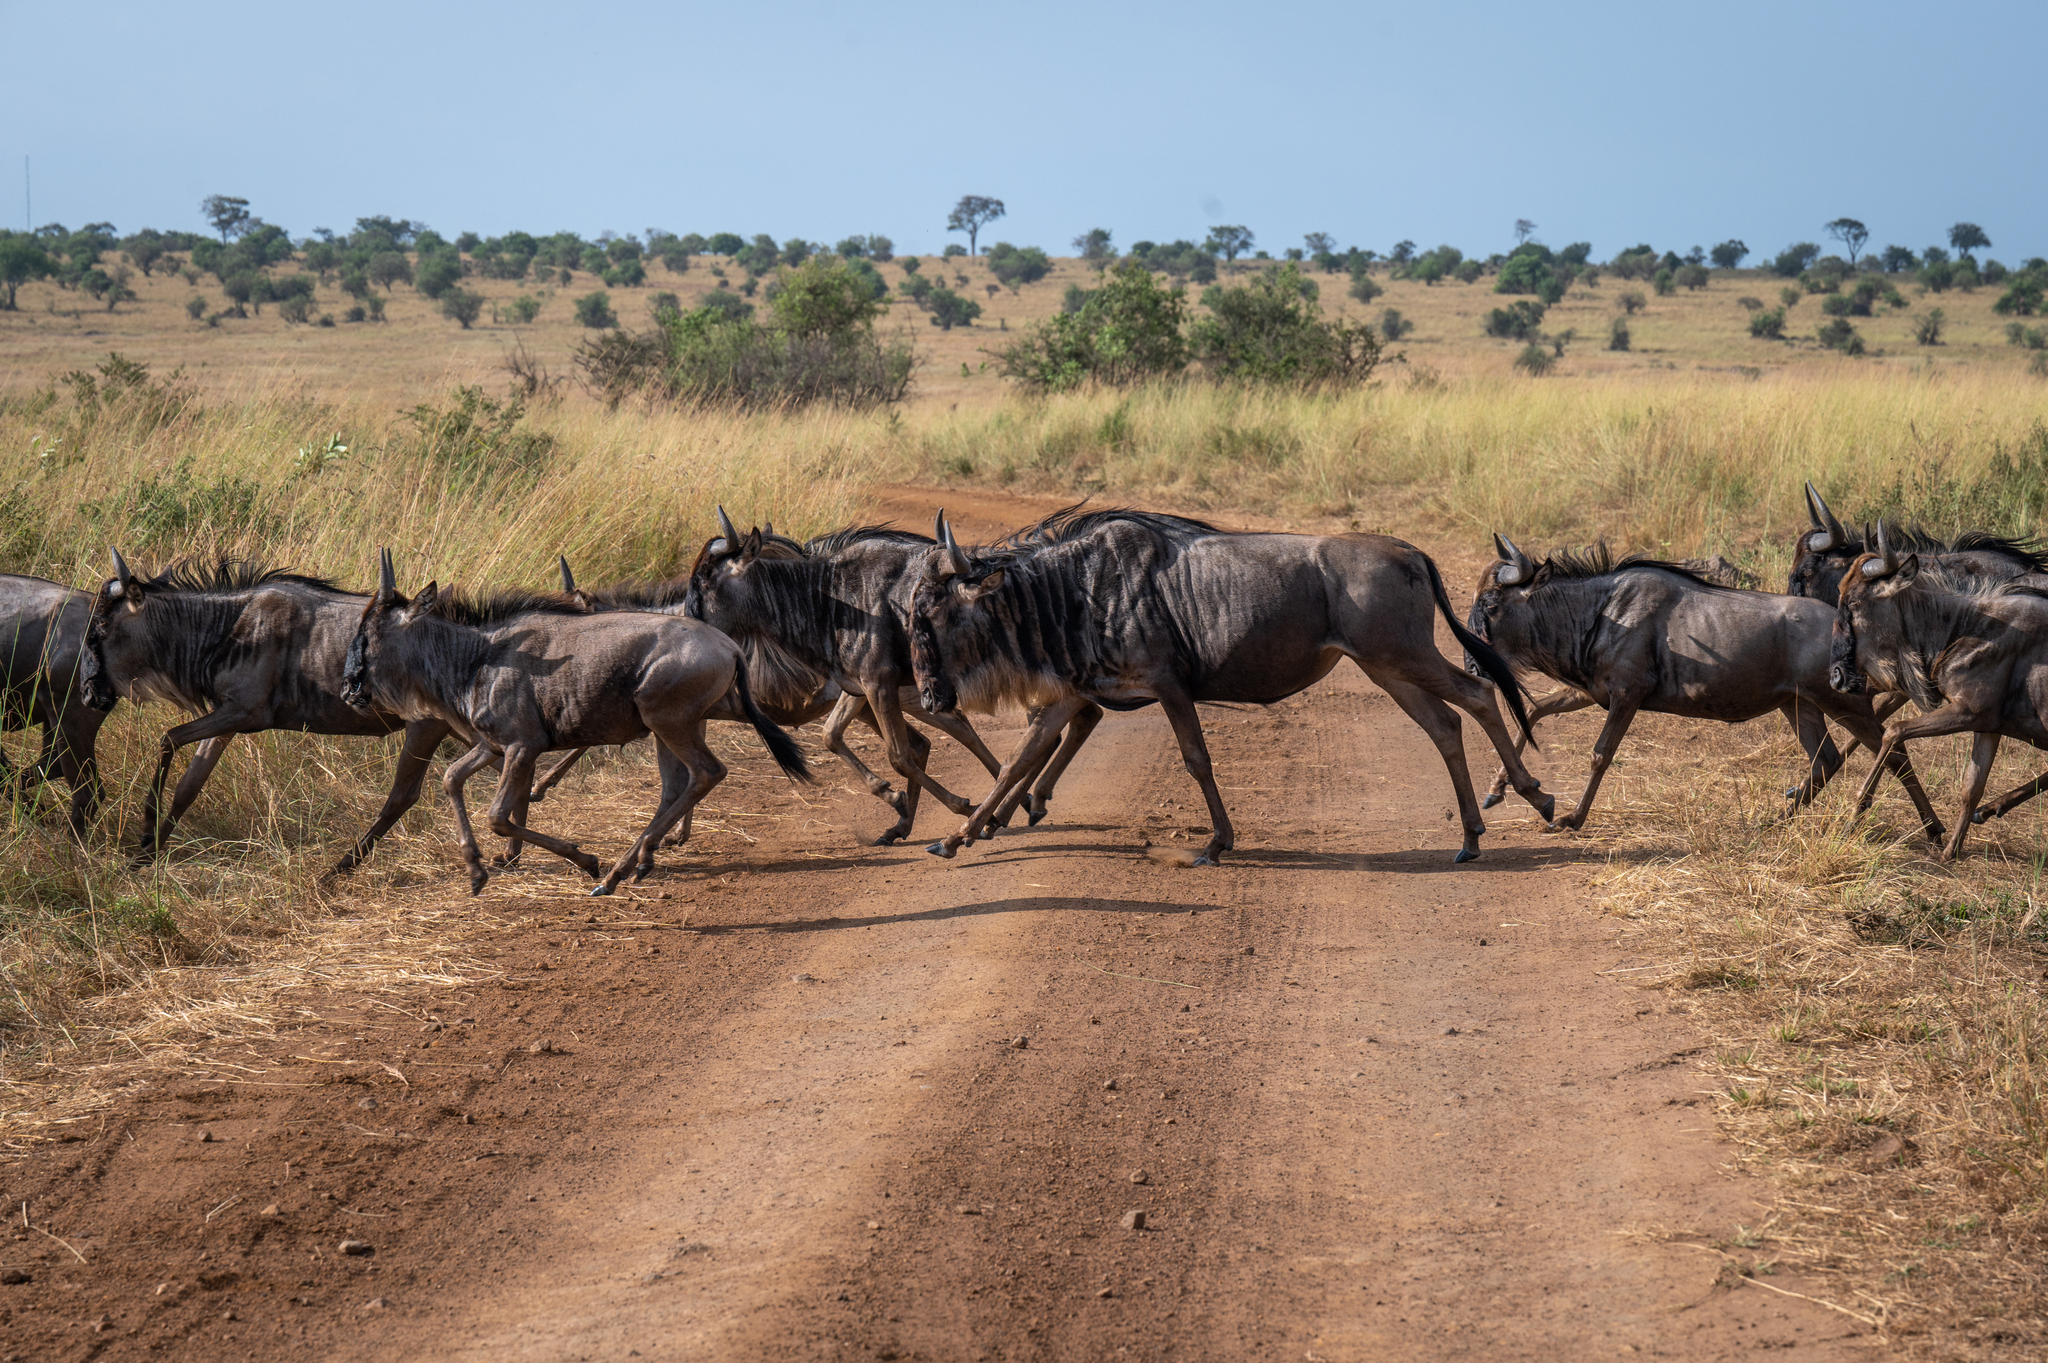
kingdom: Animalia
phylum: Chordata
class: Mammalia
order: Artiodactyla
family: Bovidae
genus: Connochaetes
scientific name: Connochaetes taurinus
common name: Blue wildebeest
